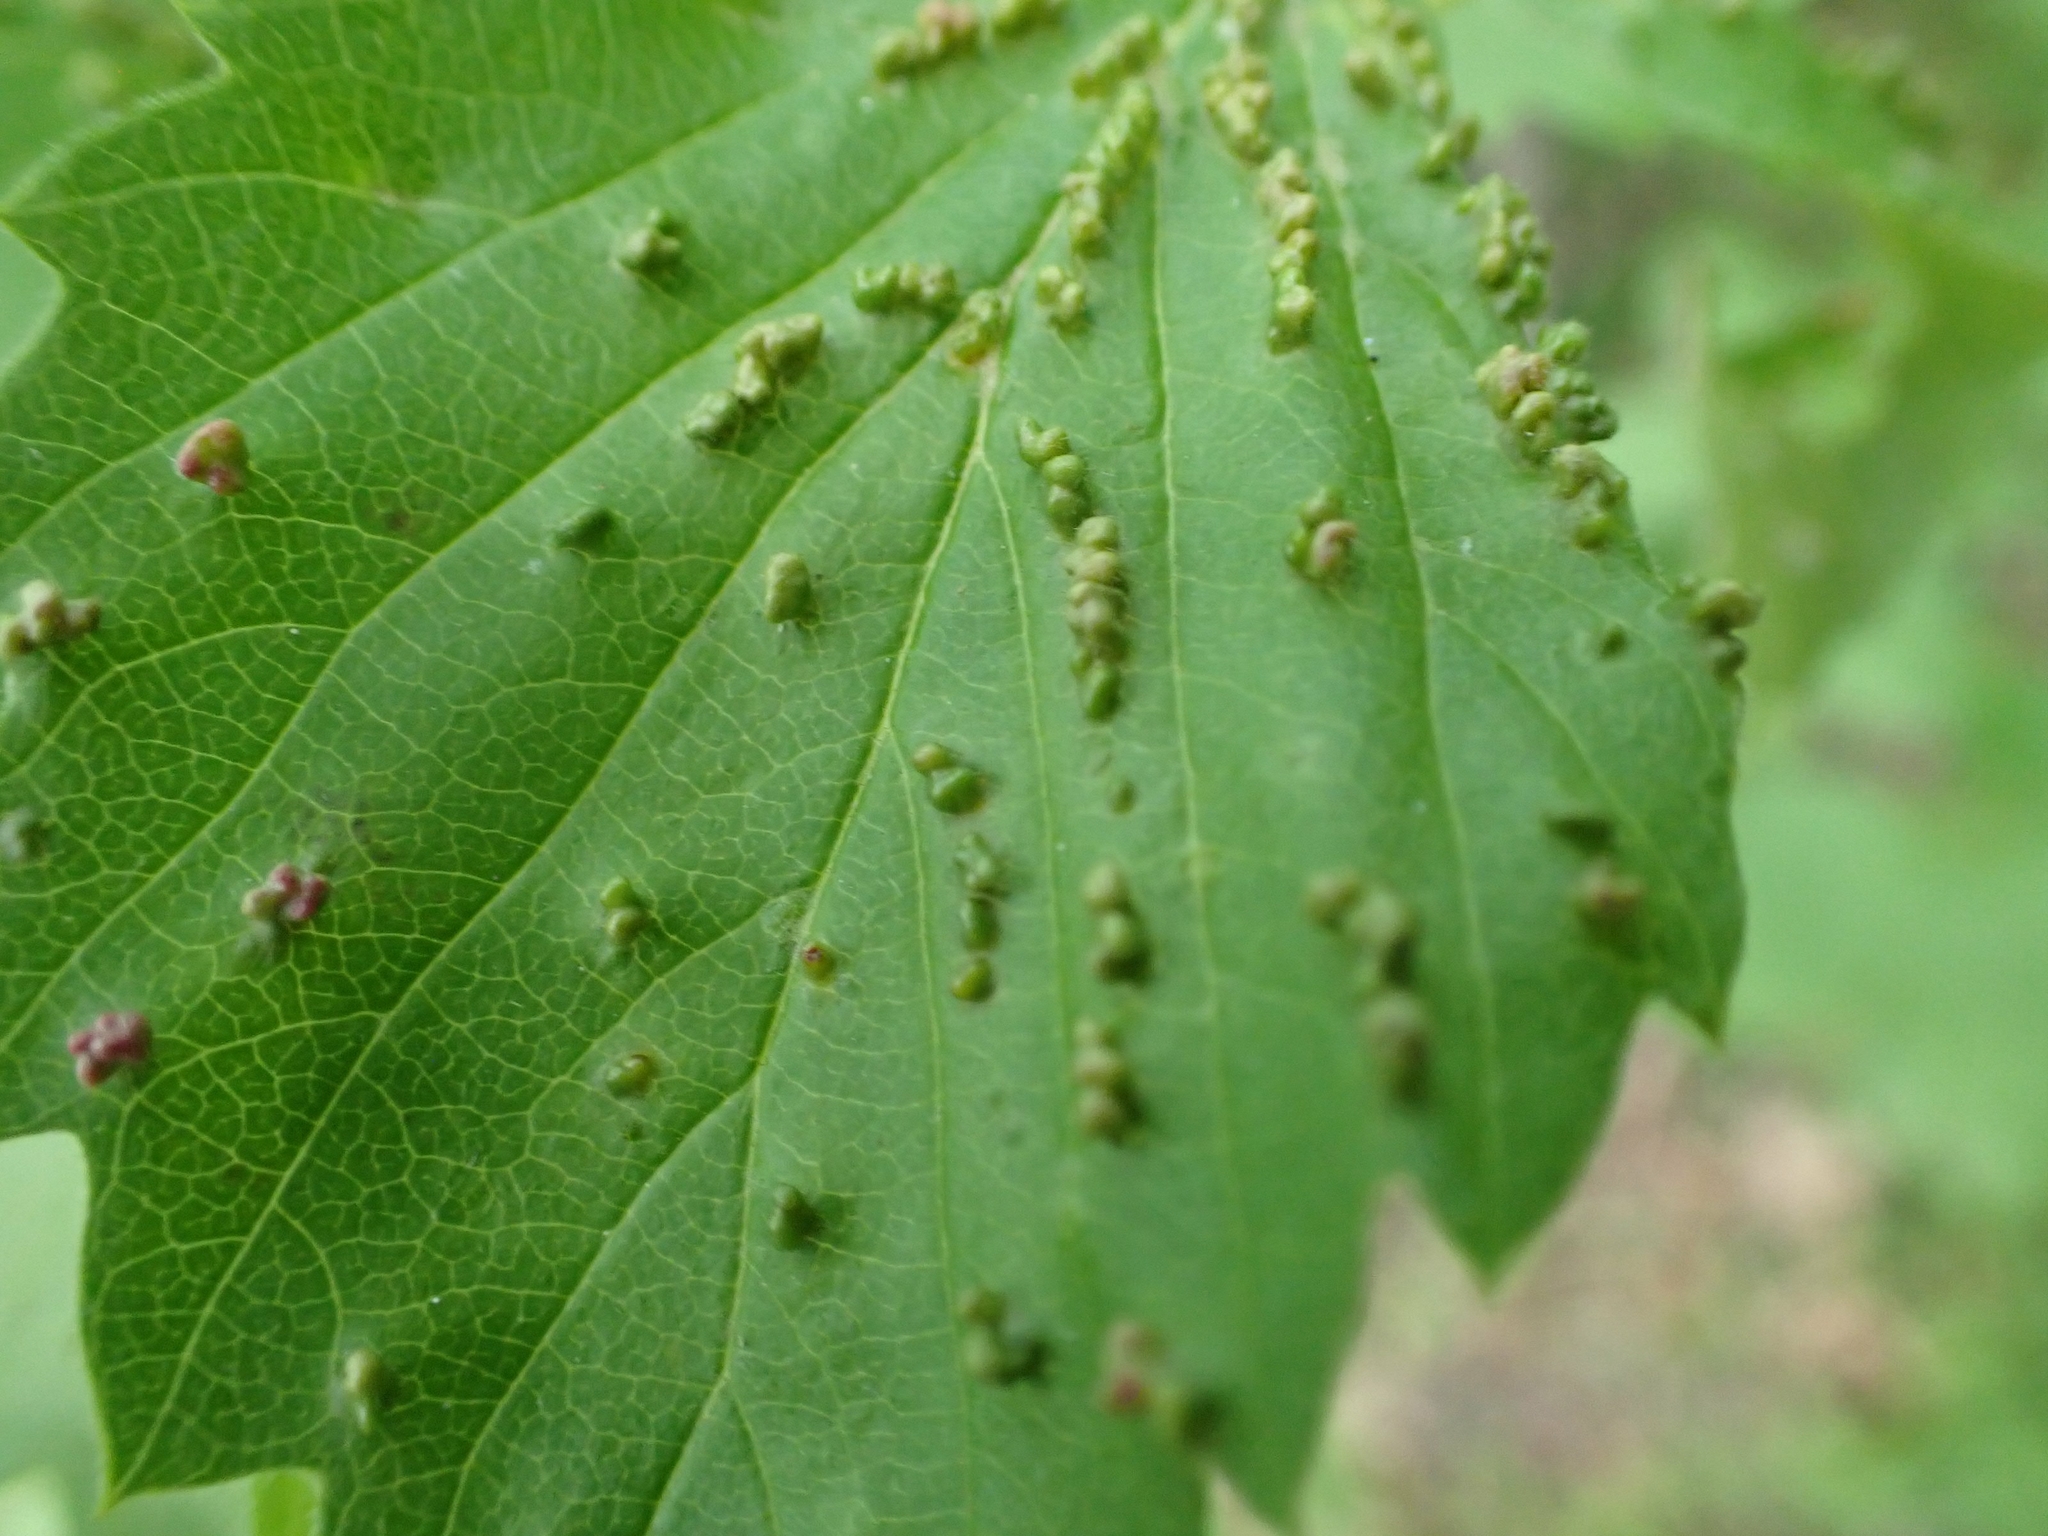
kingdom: Animalia
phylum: Arthropoda
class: Arachnida
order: Trombidiformes
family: Eriophyidae
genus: Eriophyes
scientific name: Eriophyes
